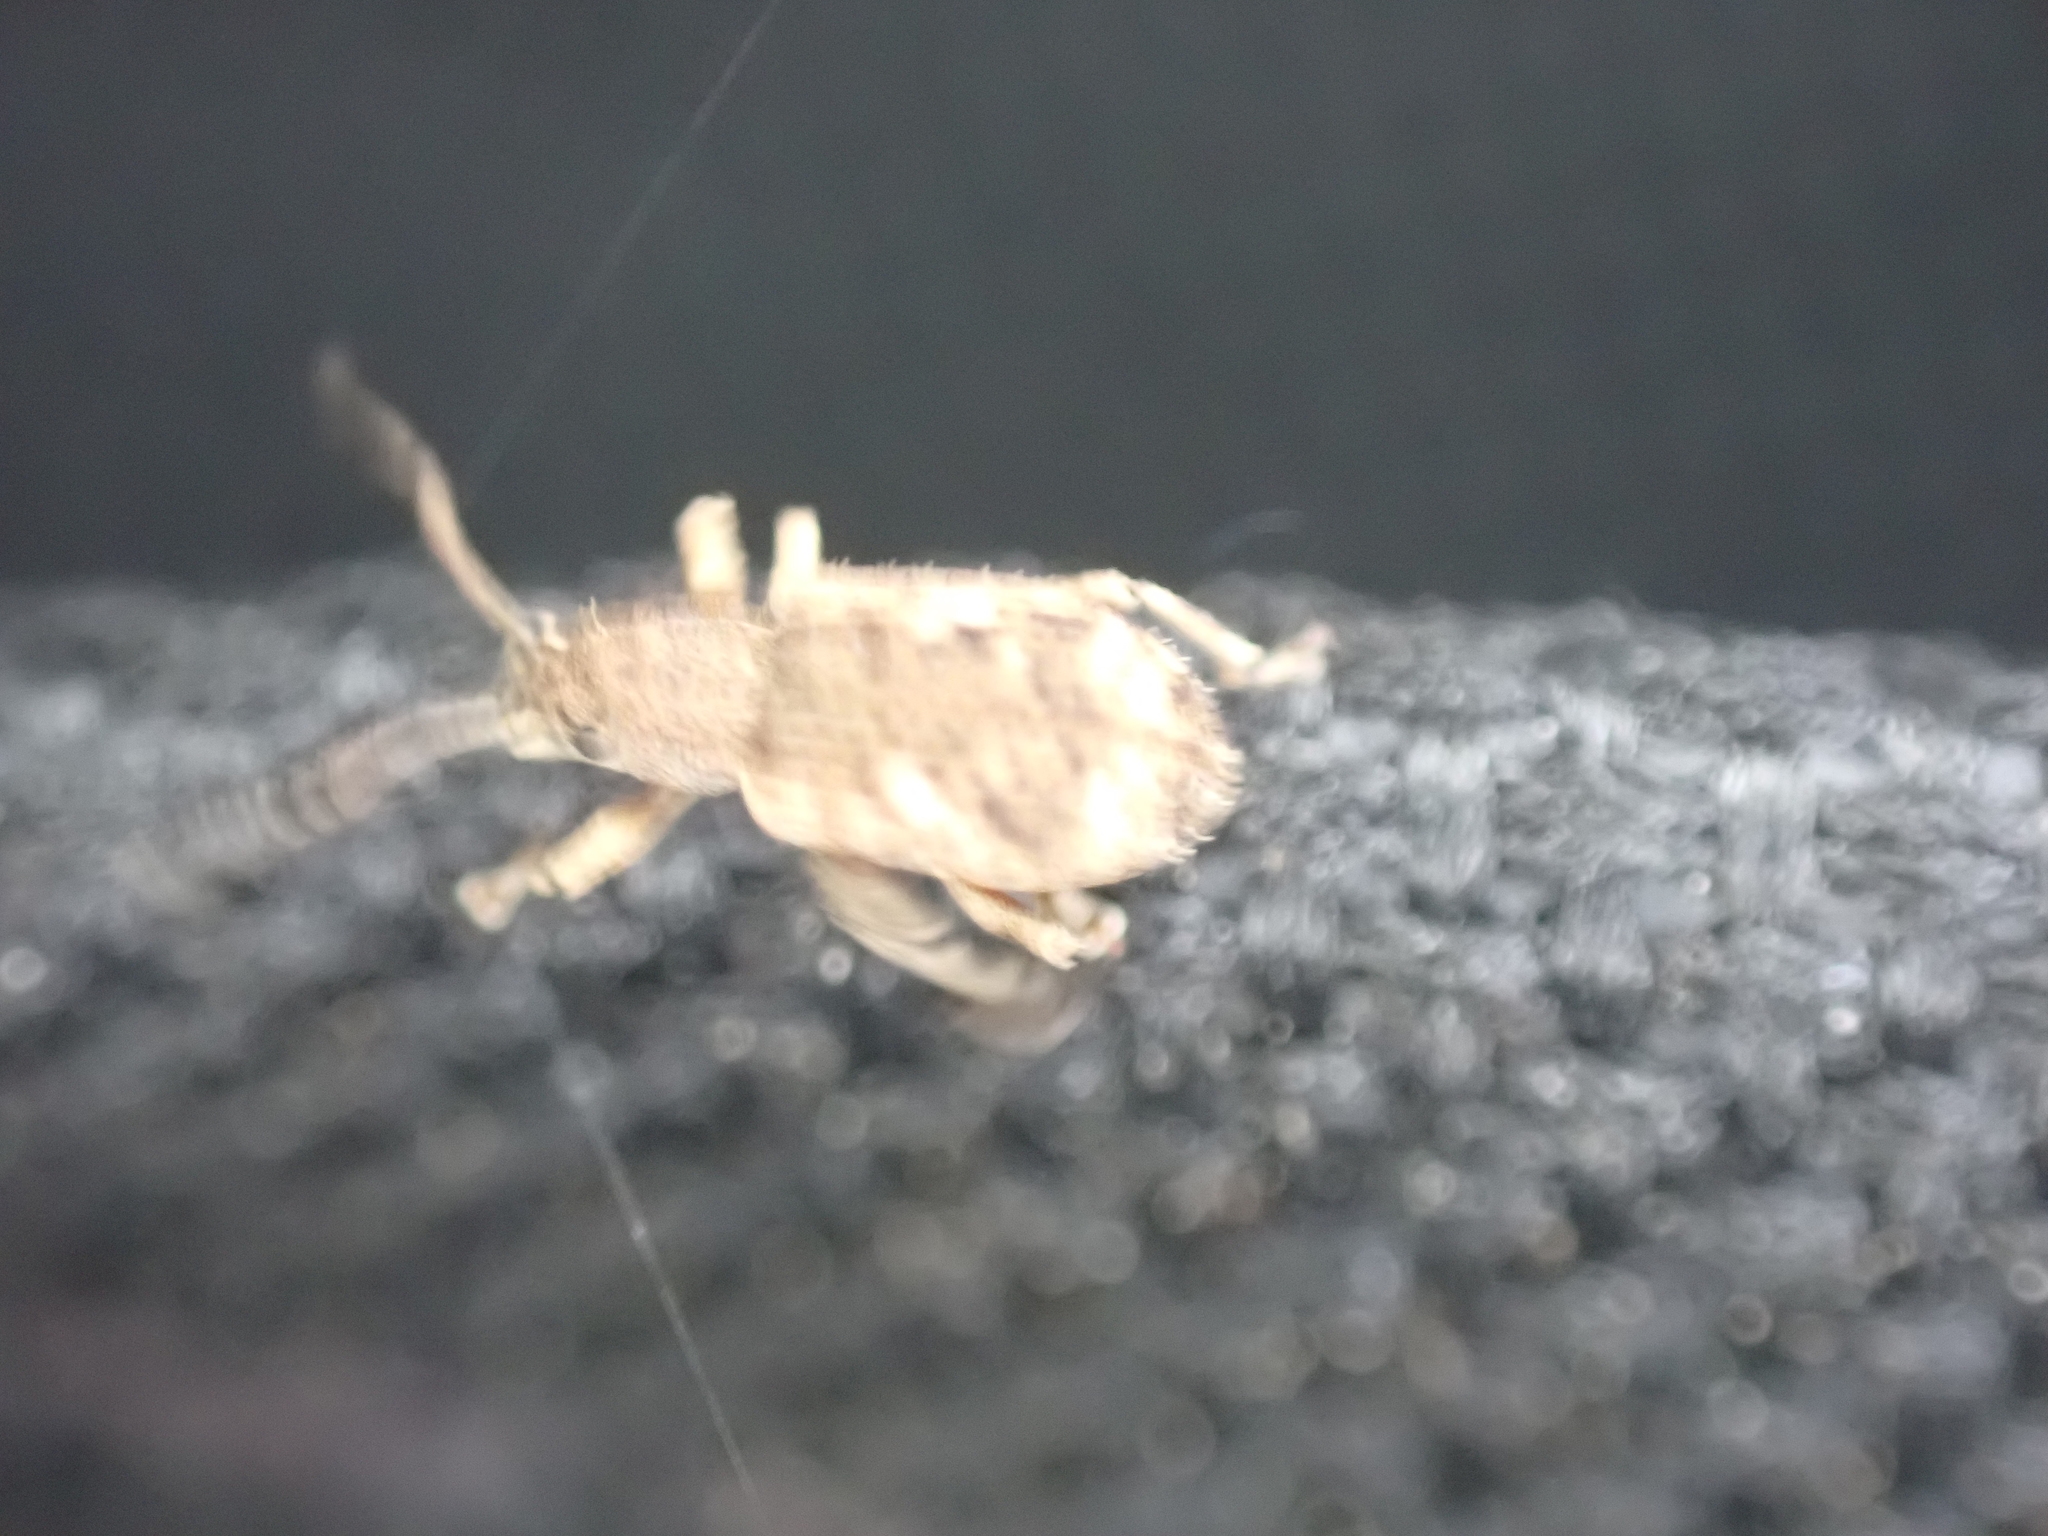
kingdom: Animalia
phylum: Arthropoda
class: Insecta
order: Coleoptera
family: Curculionidae
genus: Pseudoedophrys
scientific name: Pseudoedophrys hilleri
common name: Weevil
